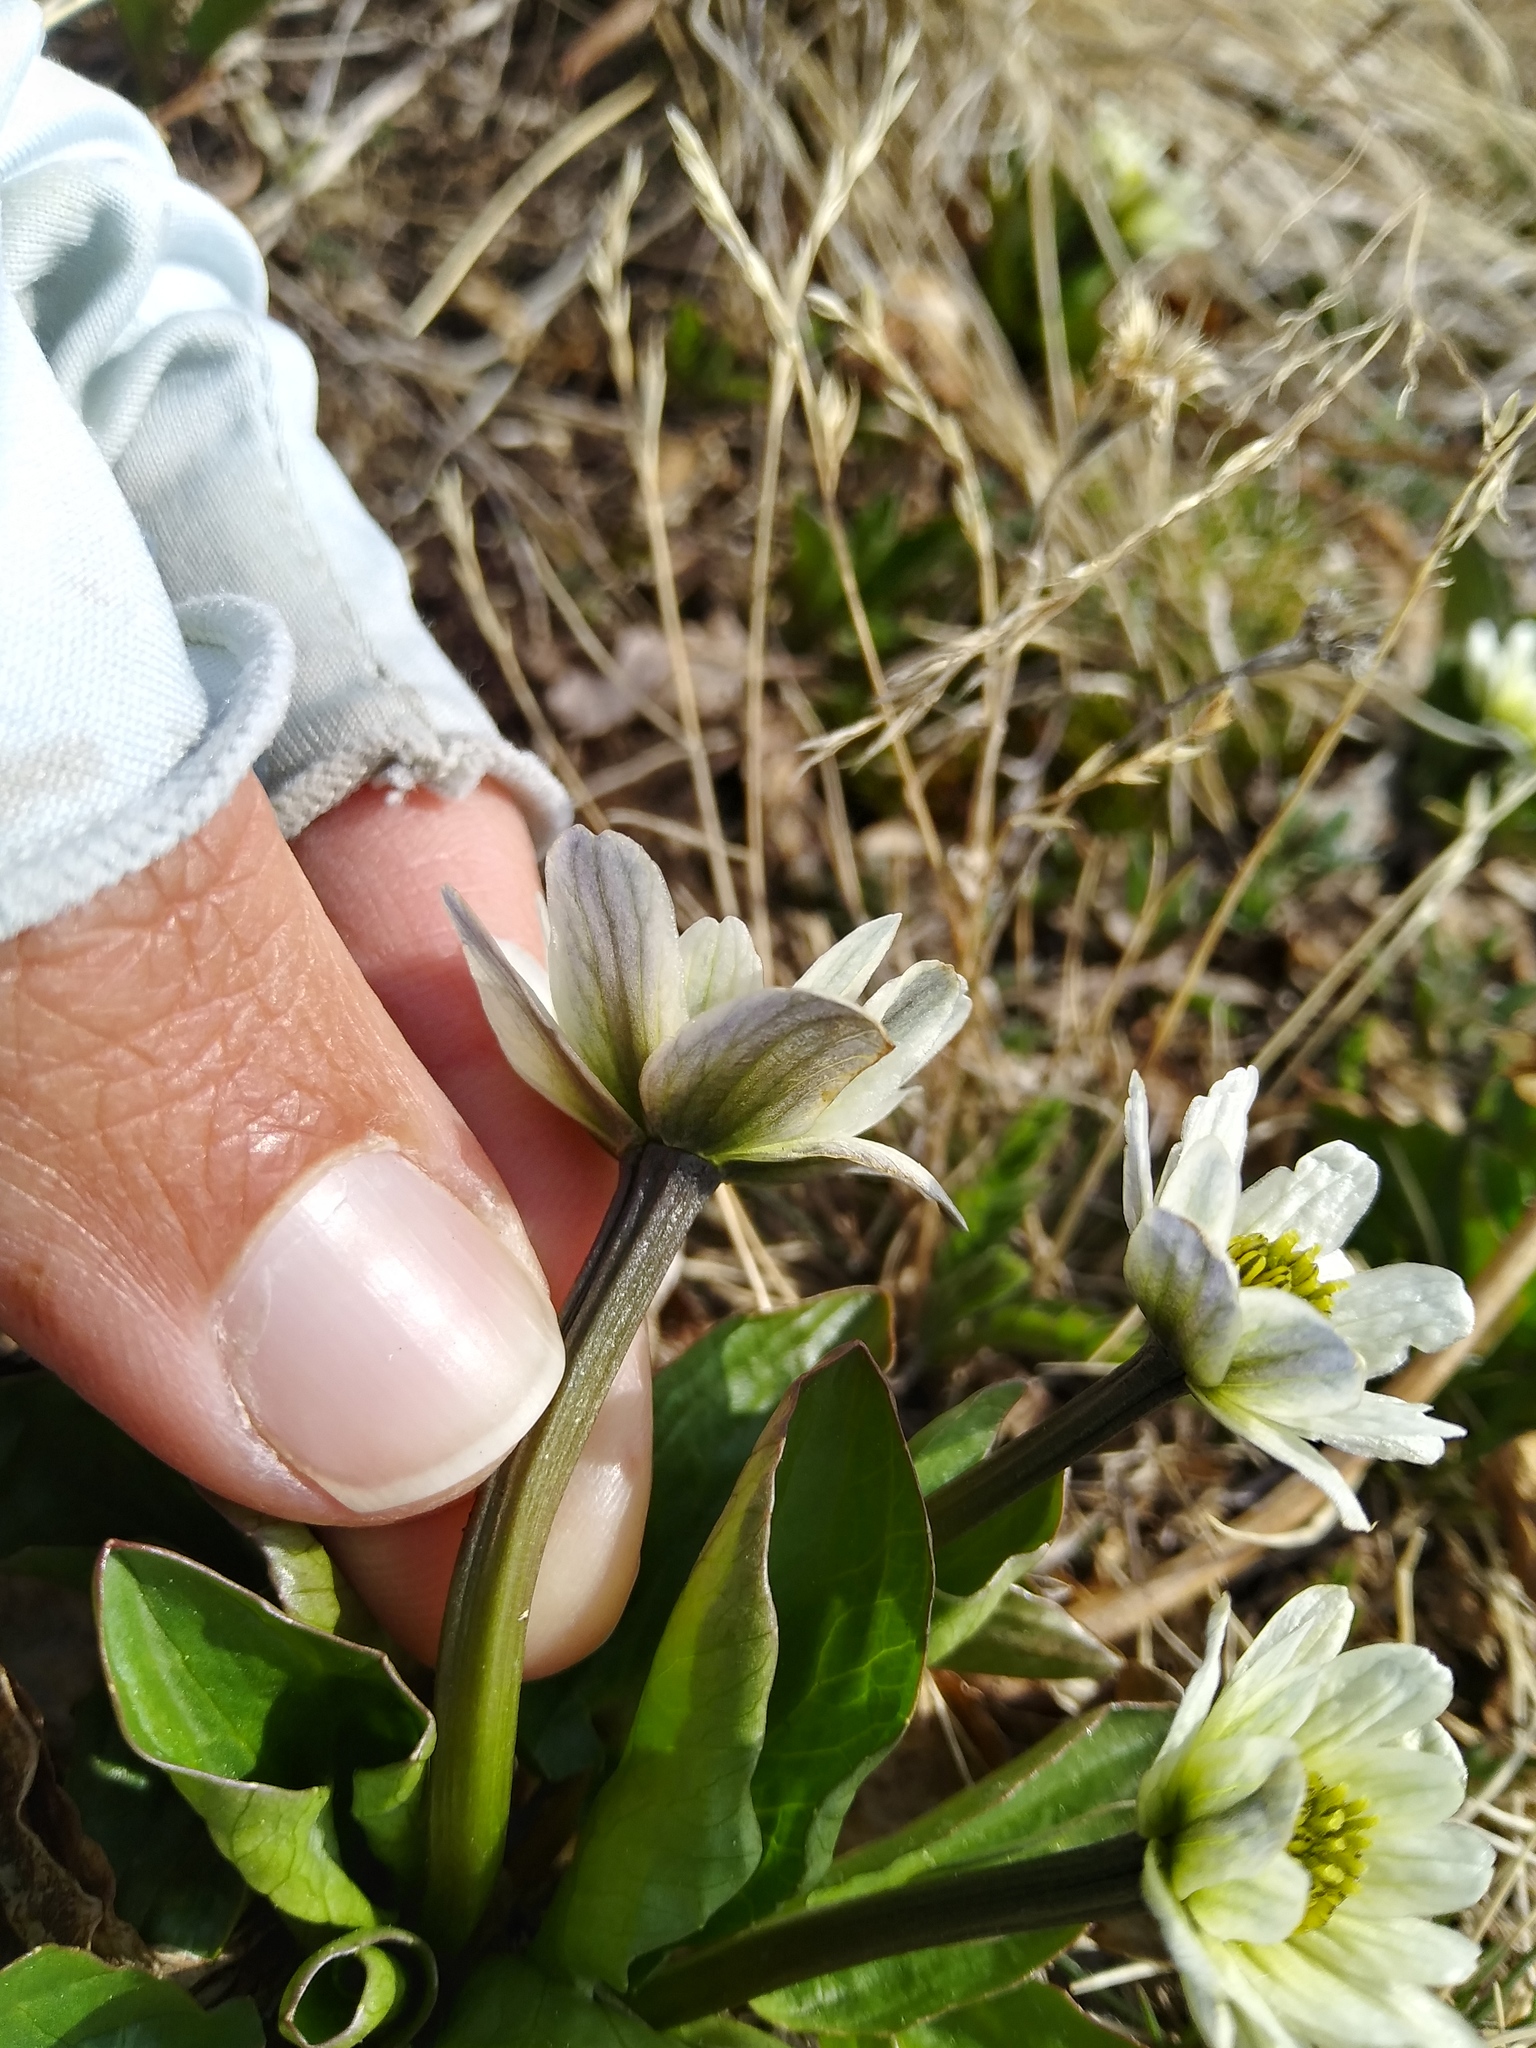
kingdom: Plantae
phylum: Tracheophyta
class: Magnoliopsida
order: Ranunculales
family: Ranunculaceae
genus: Caltha
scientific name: Caltha leptosepala
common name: Elkslip
